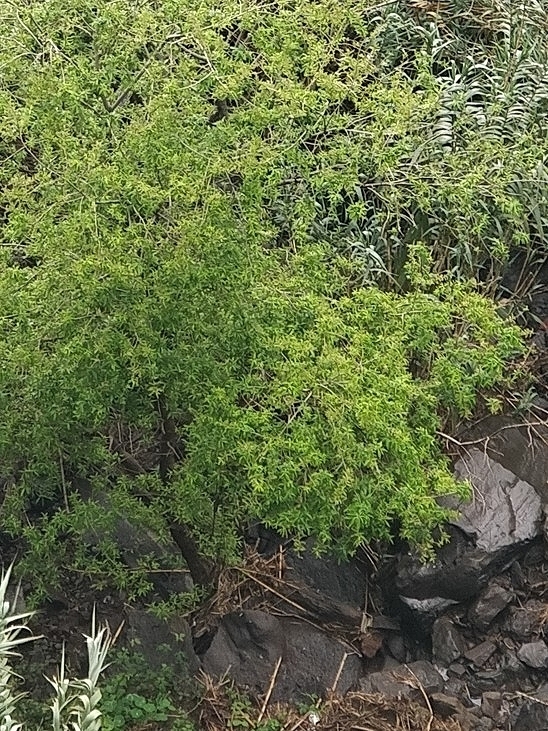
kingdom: Plantae
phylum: Tracheophyta
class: Magnoliopsida
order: Malpighiales
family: Salicaceae
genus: Salix
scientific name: Salix canariensis
